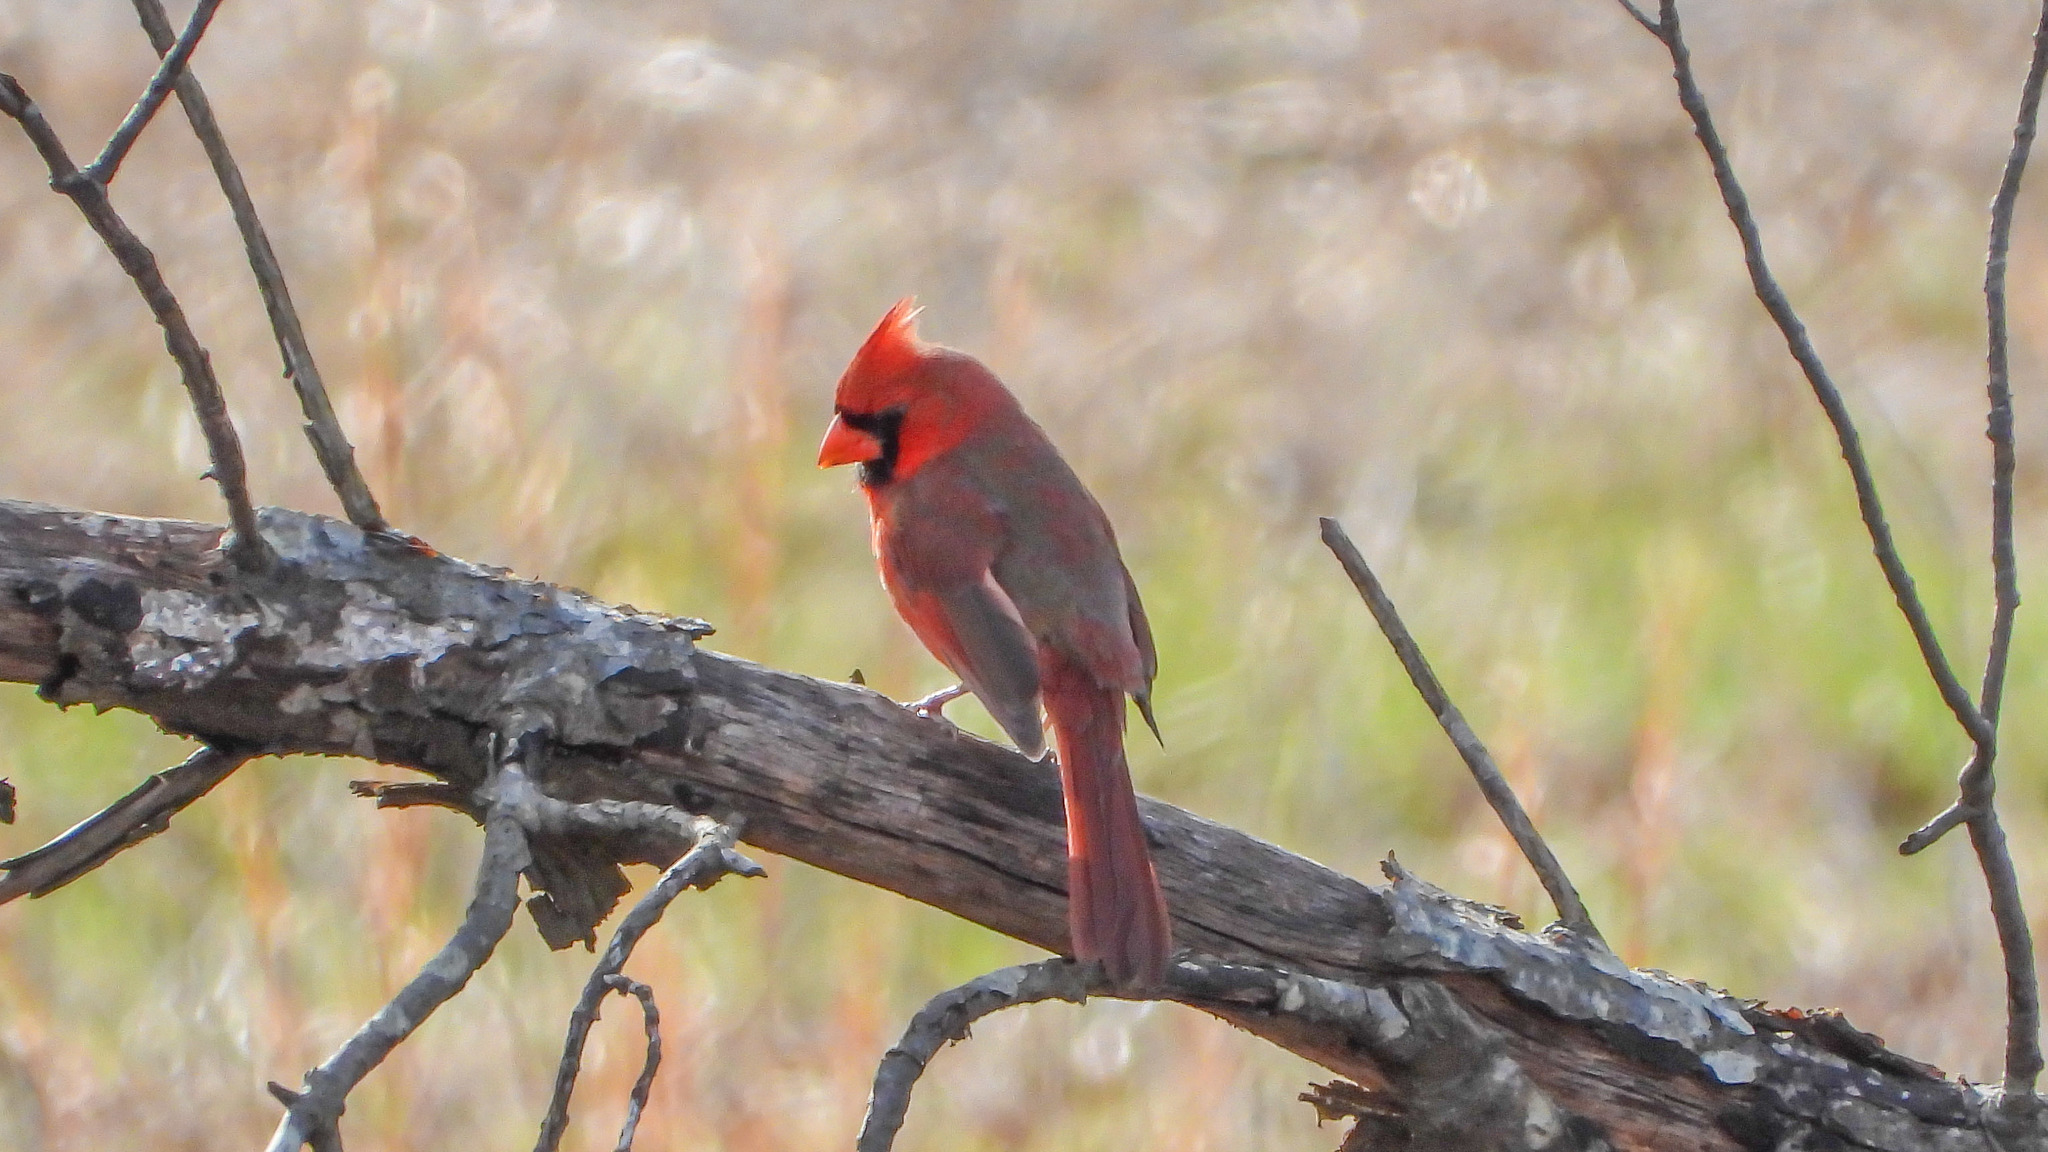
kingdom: Animalia
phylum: Chordata
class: Aves
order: Passeriformes
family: Cardinalidae
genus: Cardinalis
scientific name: Cardinalis cardinalis
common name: Northern cardinal
